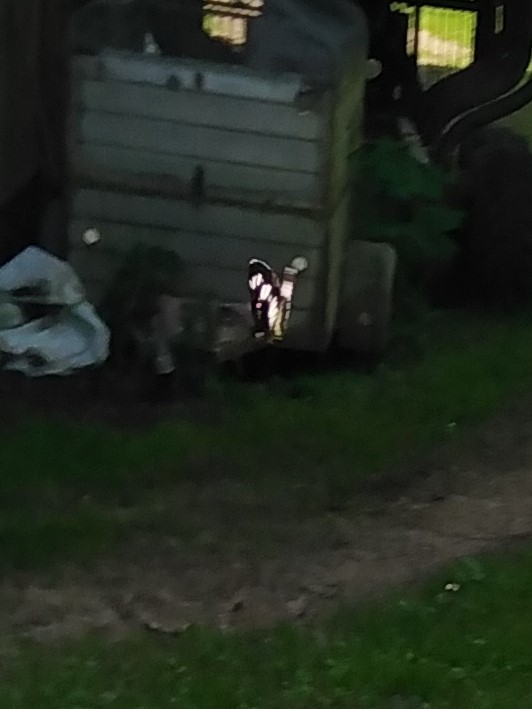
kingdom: Animalia
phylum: Arthropoda
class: Insecta
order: Lepidoptera
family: Nymphalidae
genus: Neptis
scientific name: Neptis rivularis
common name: Hungarian glider
